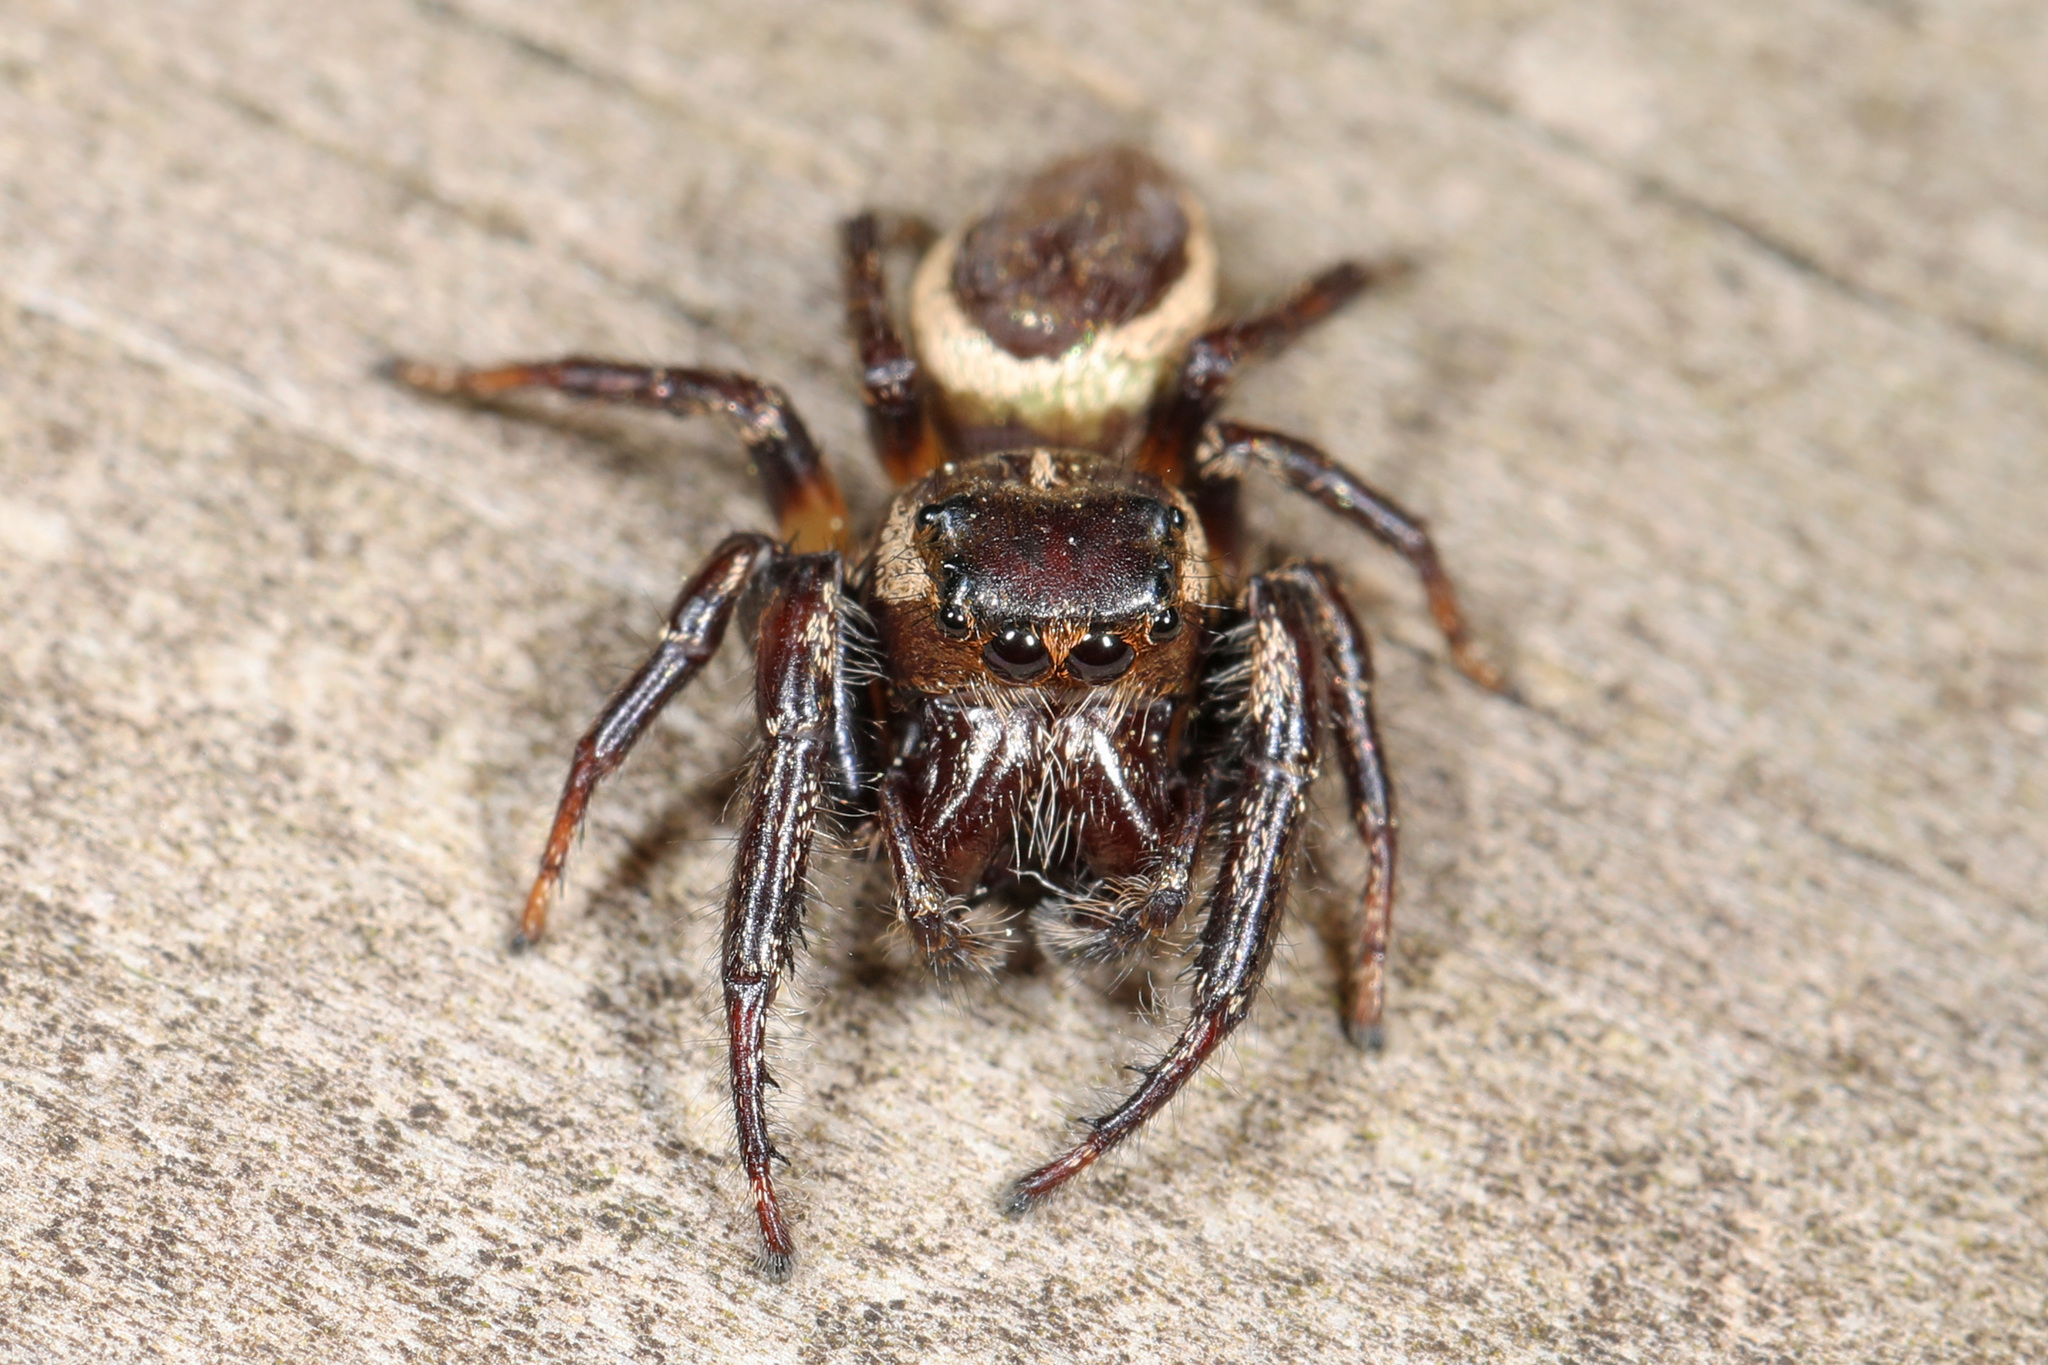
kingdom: Animalia
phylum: Arthropoda
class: Arachnida
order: Araneae
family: Salticidae
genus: Eris
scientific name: Eris militaris
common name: Bronze jumper
